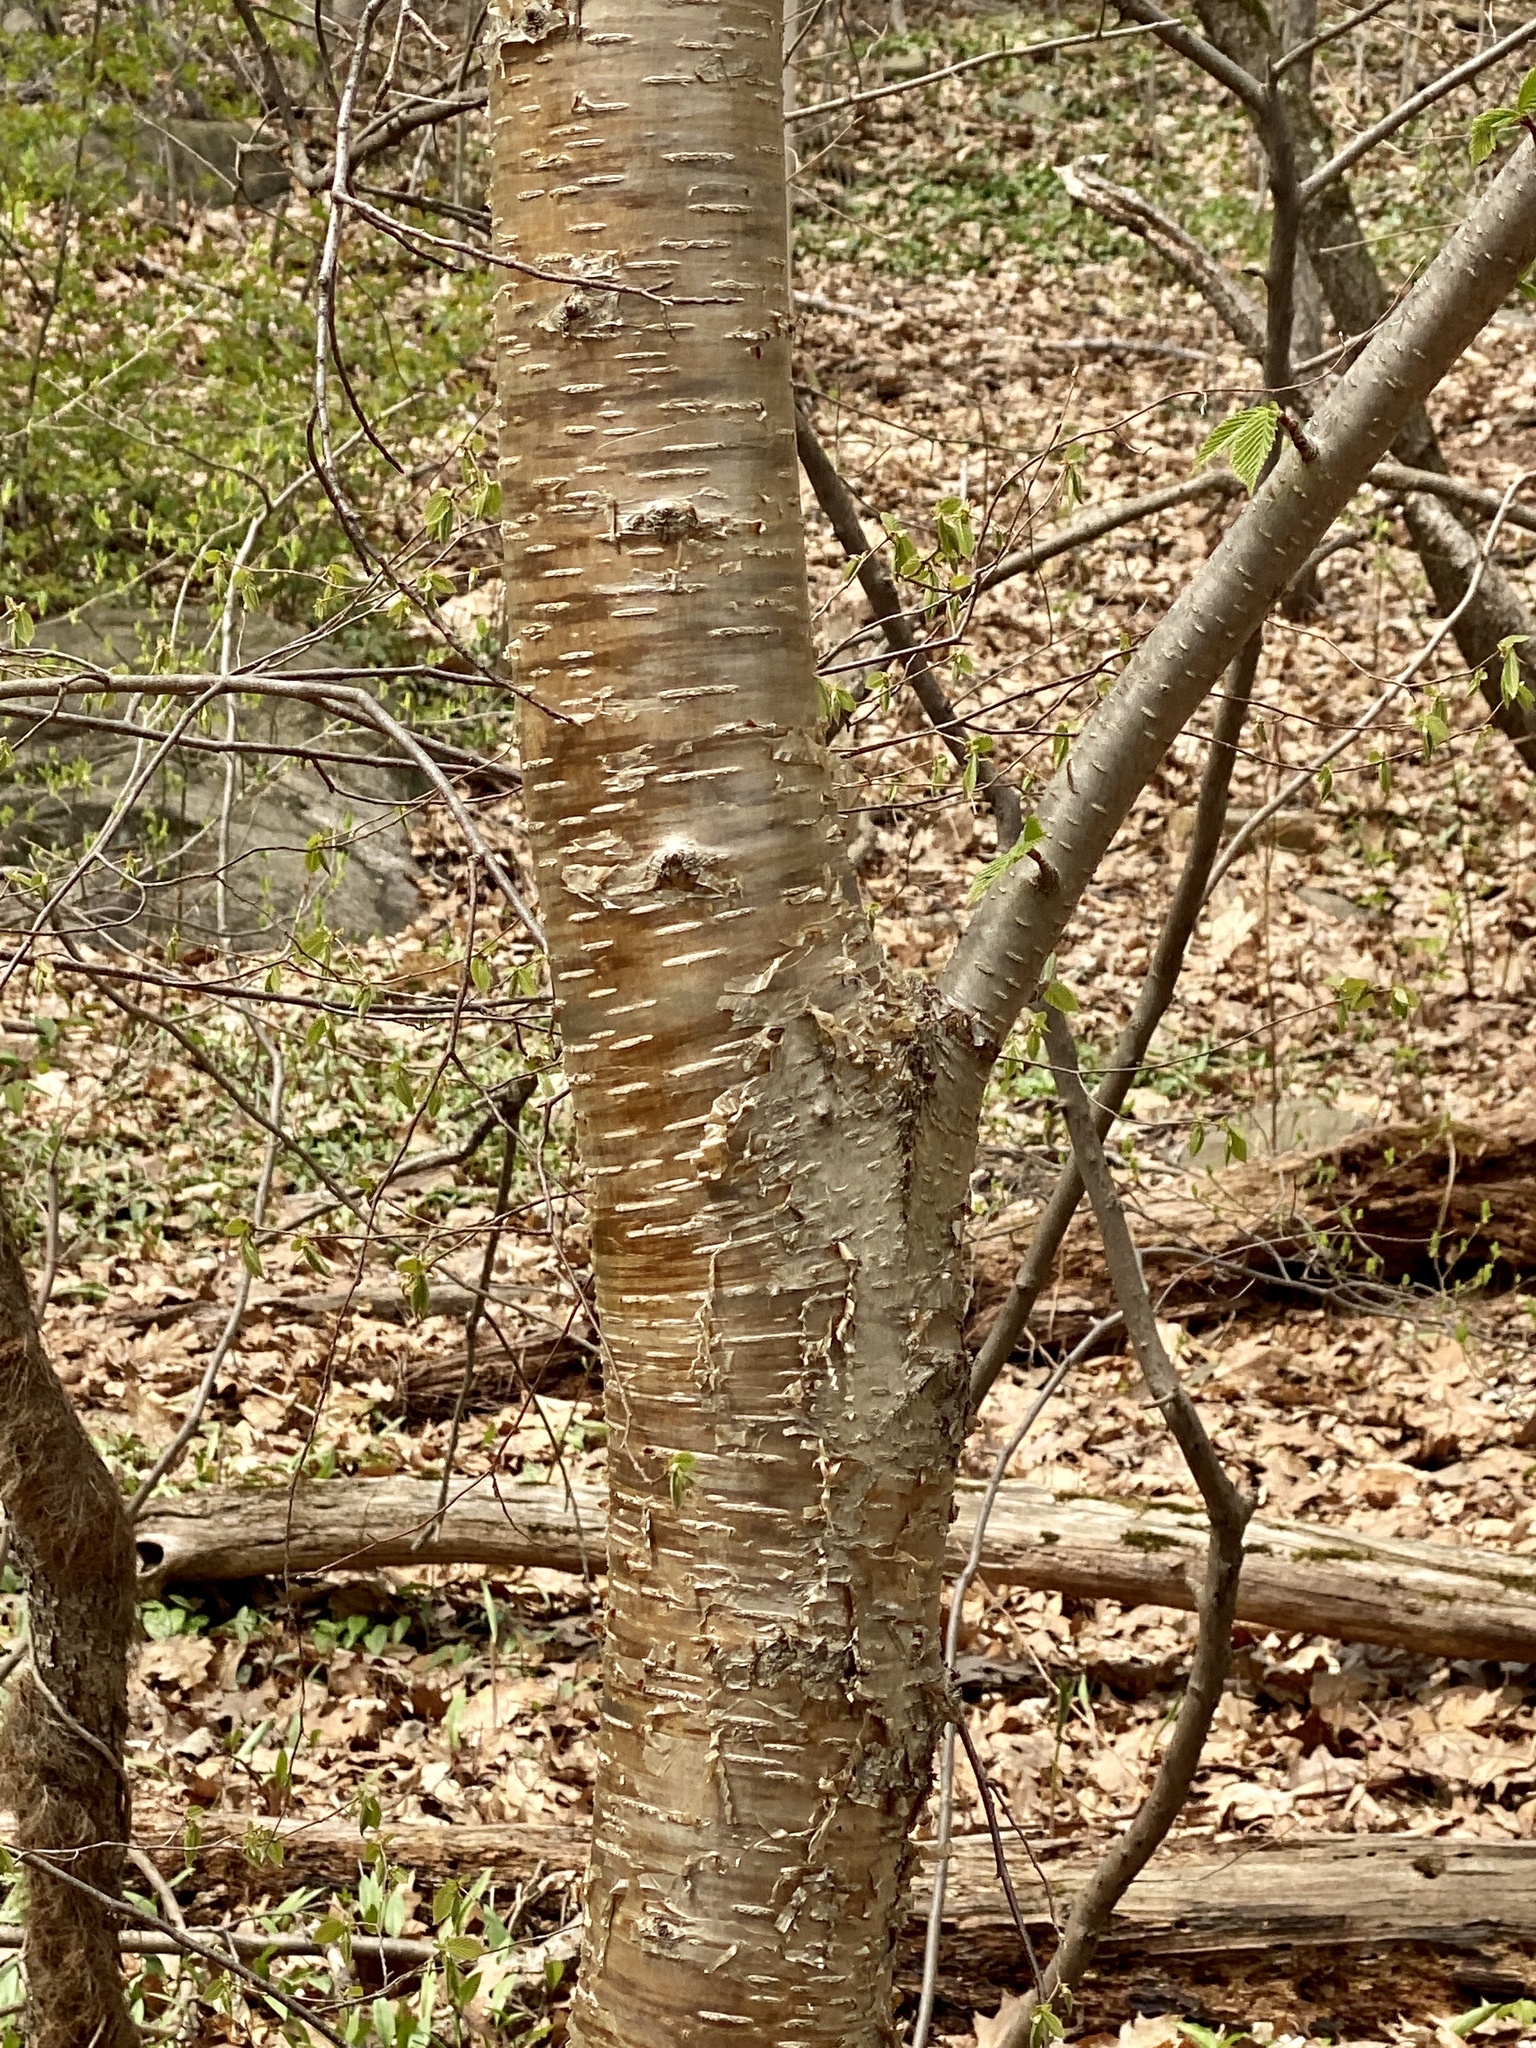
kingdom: Plantae
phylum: Tracheophyta
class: Magnoliopsida
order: Fagales
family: Betulaceae
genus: Betula
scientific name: Betula alleghaniensis
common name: Yellow birch
